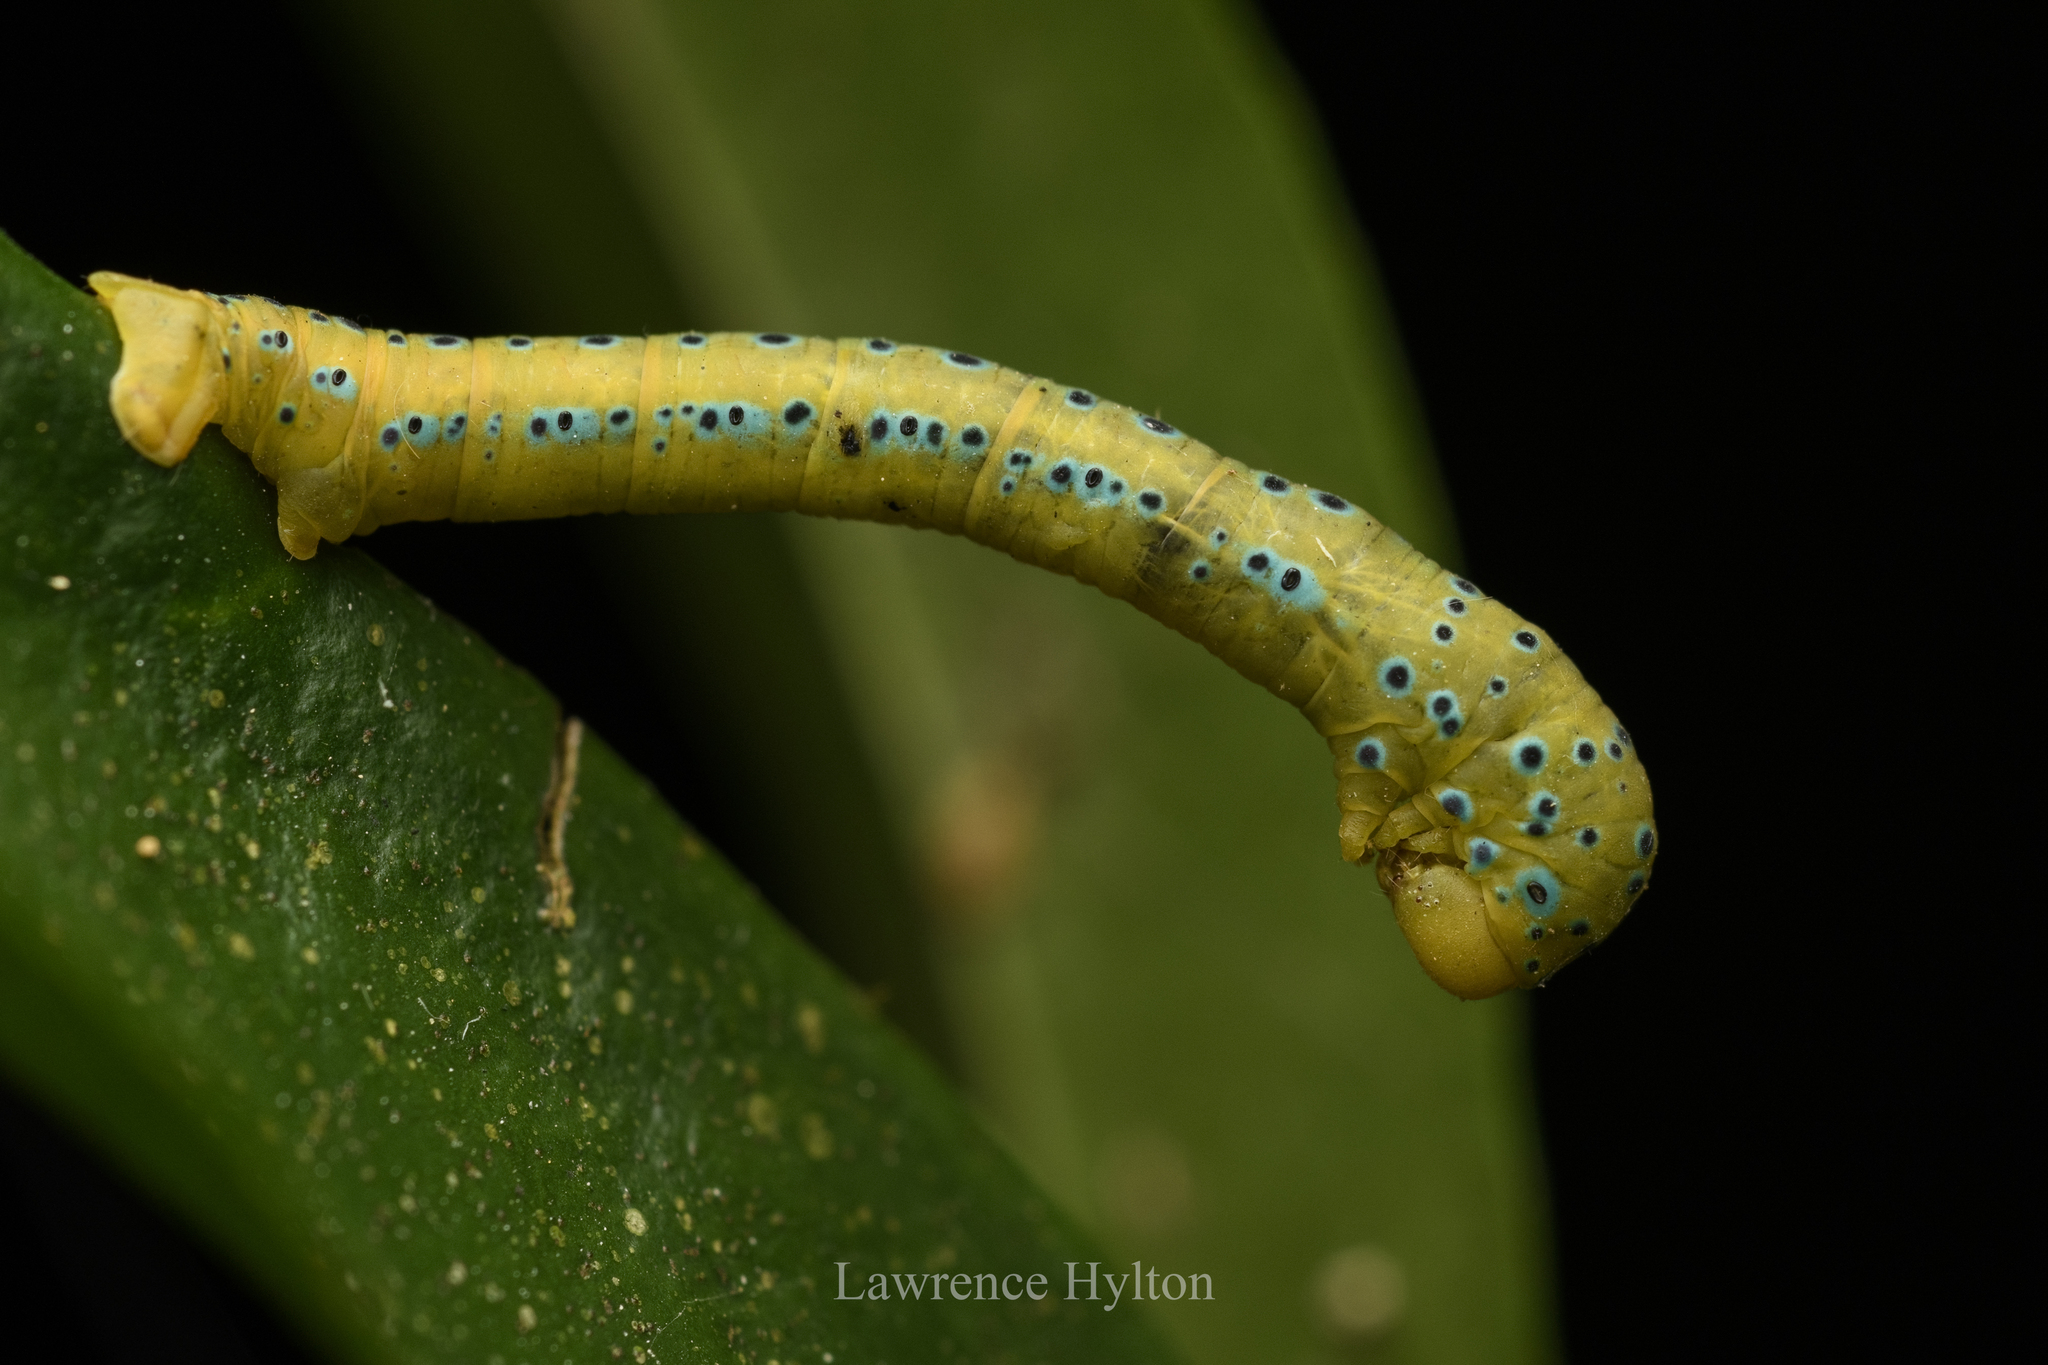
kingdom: Animalia
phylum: Arthropoda
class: Insecta
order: Lepidoptera
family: Geometridae
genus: Dysphania
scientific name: Dysphania militaris
